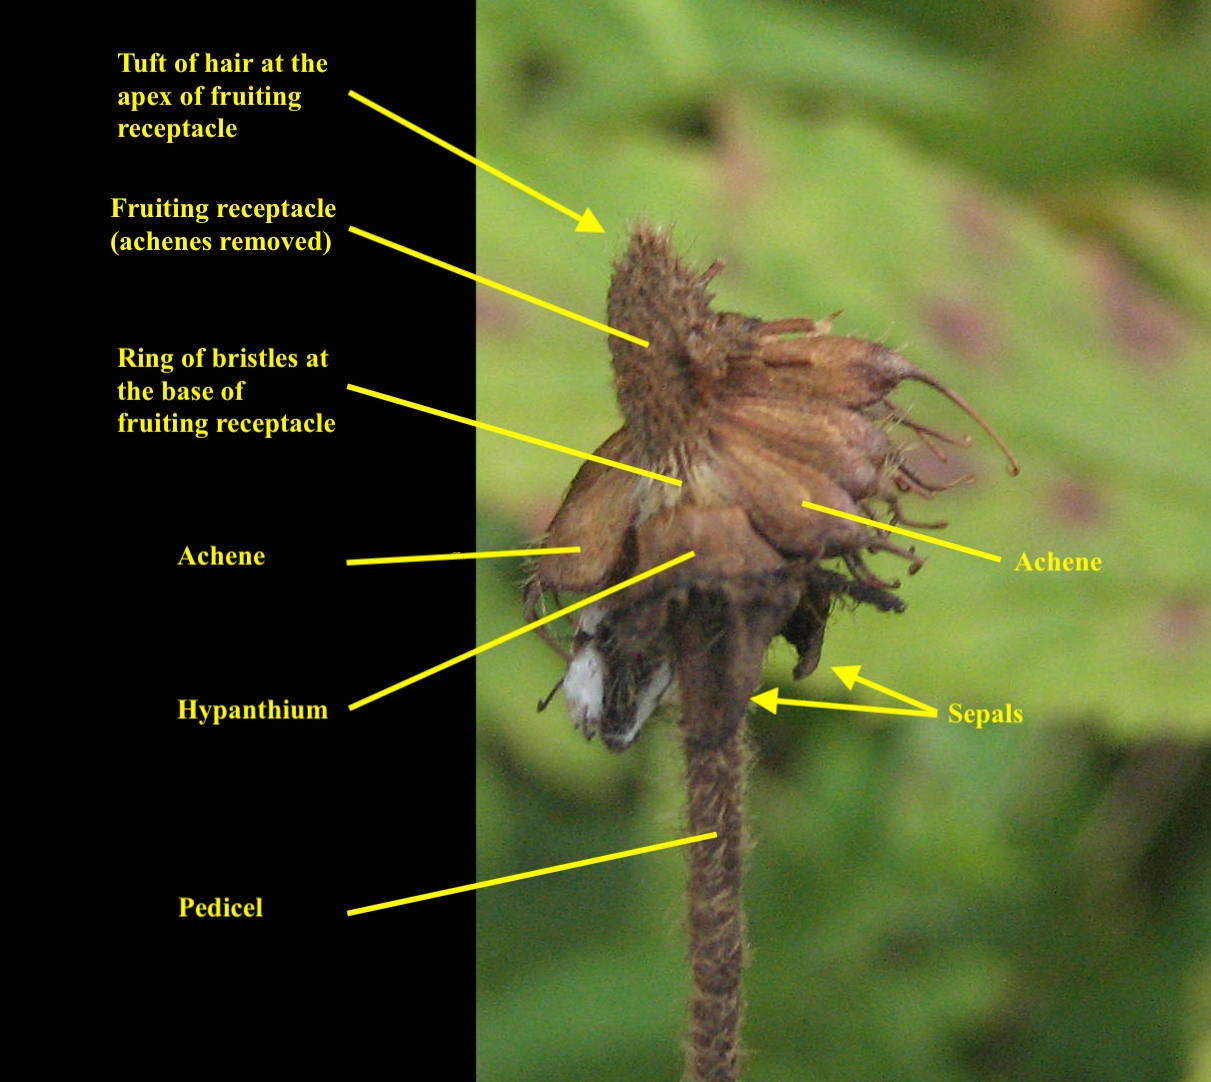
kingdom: Plantae
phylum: Tracheophyta
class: Magnoliopsida
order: Rosales
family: Rosaceae
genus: Geum
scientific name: Geum laciniatum
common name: Rough avens
